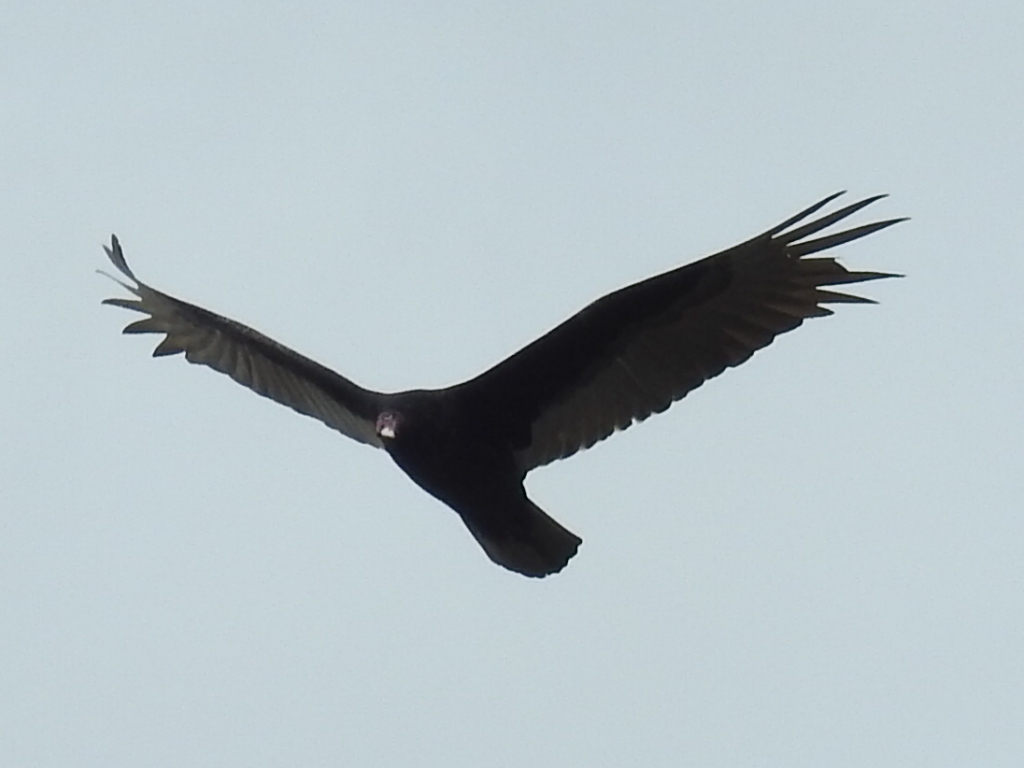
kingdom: Animalia
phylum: Chordata
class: Aves
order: Accipitriformes
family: Cathartidae
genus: Cathartes
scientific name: Cathartes aura
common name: Turkey vulture
